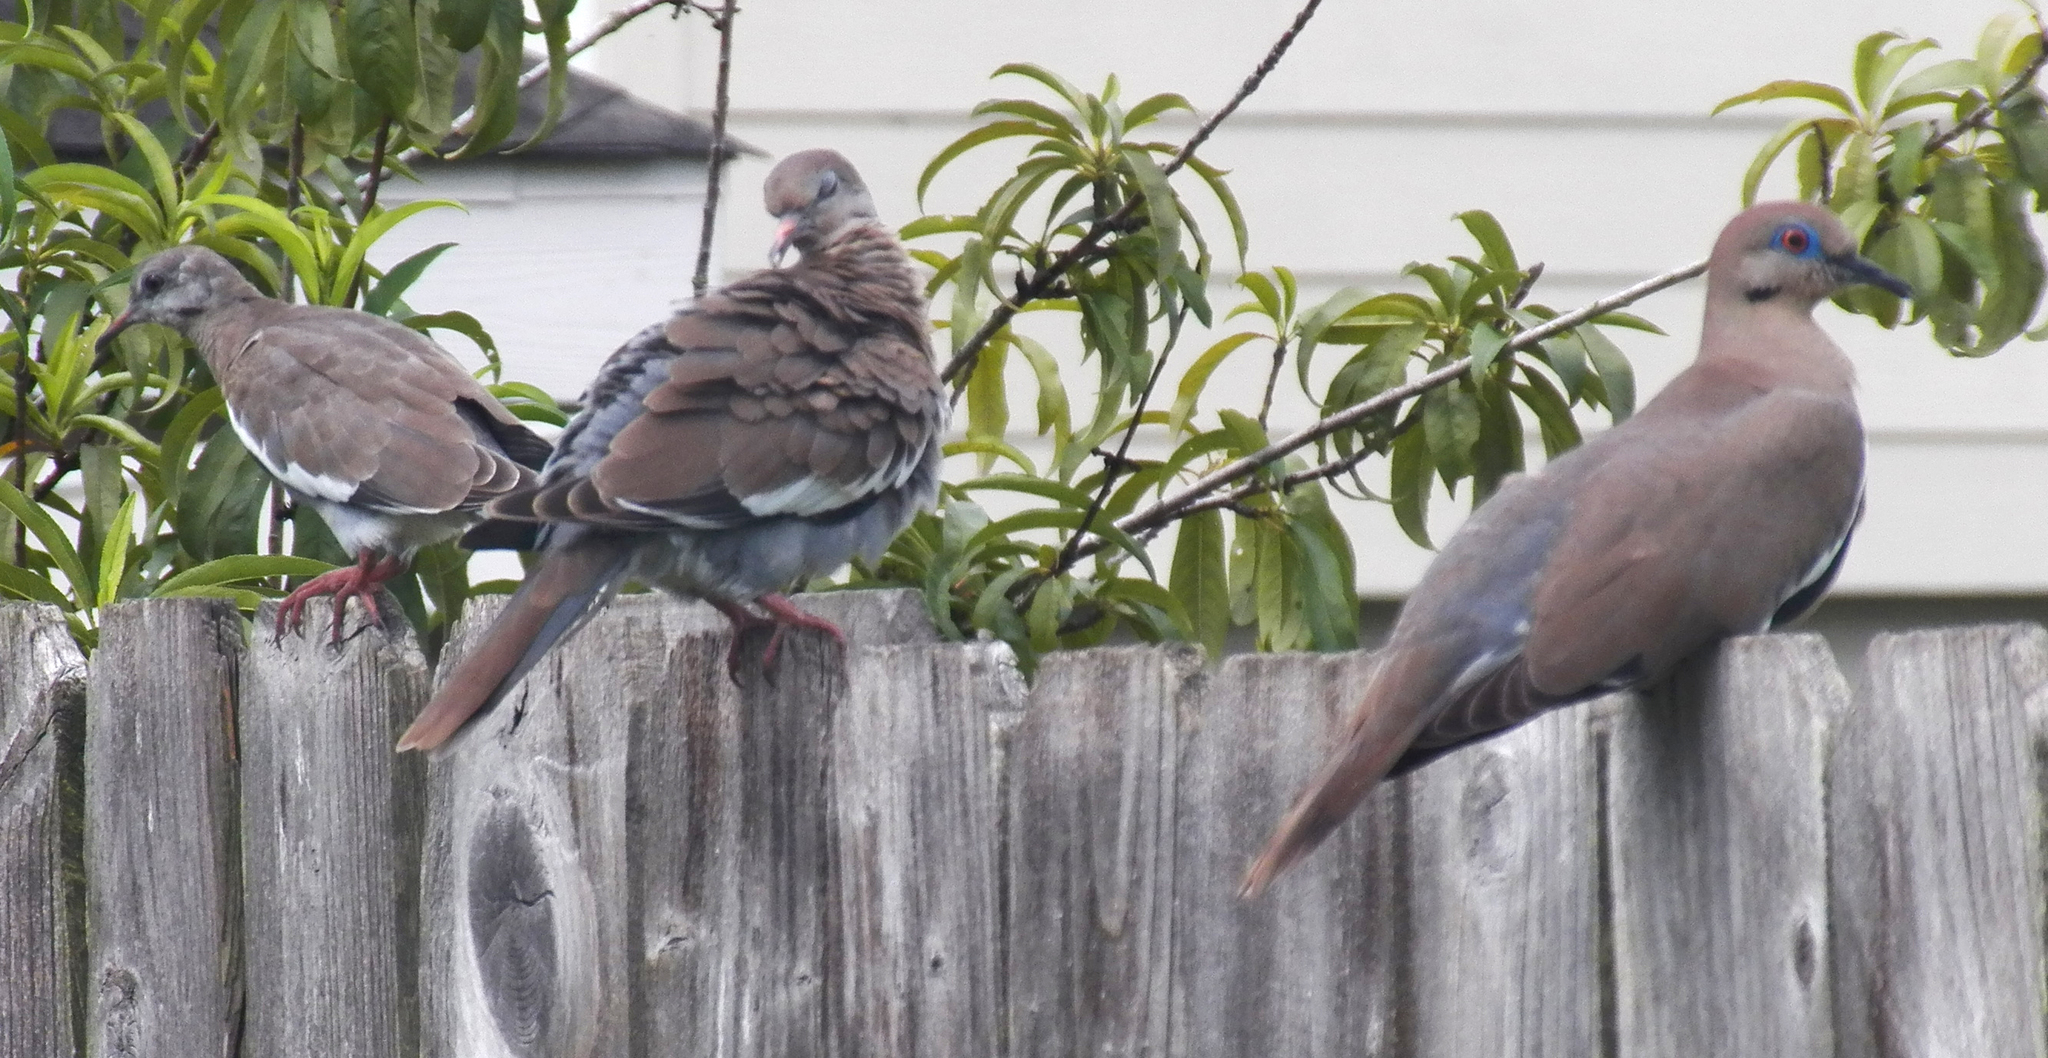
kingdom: Animalia
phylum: Chordata
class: Aves
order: Columbiformes
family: Columbidae
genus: Zenaida
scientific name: Zenaida asiatica
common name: White-winged dove
